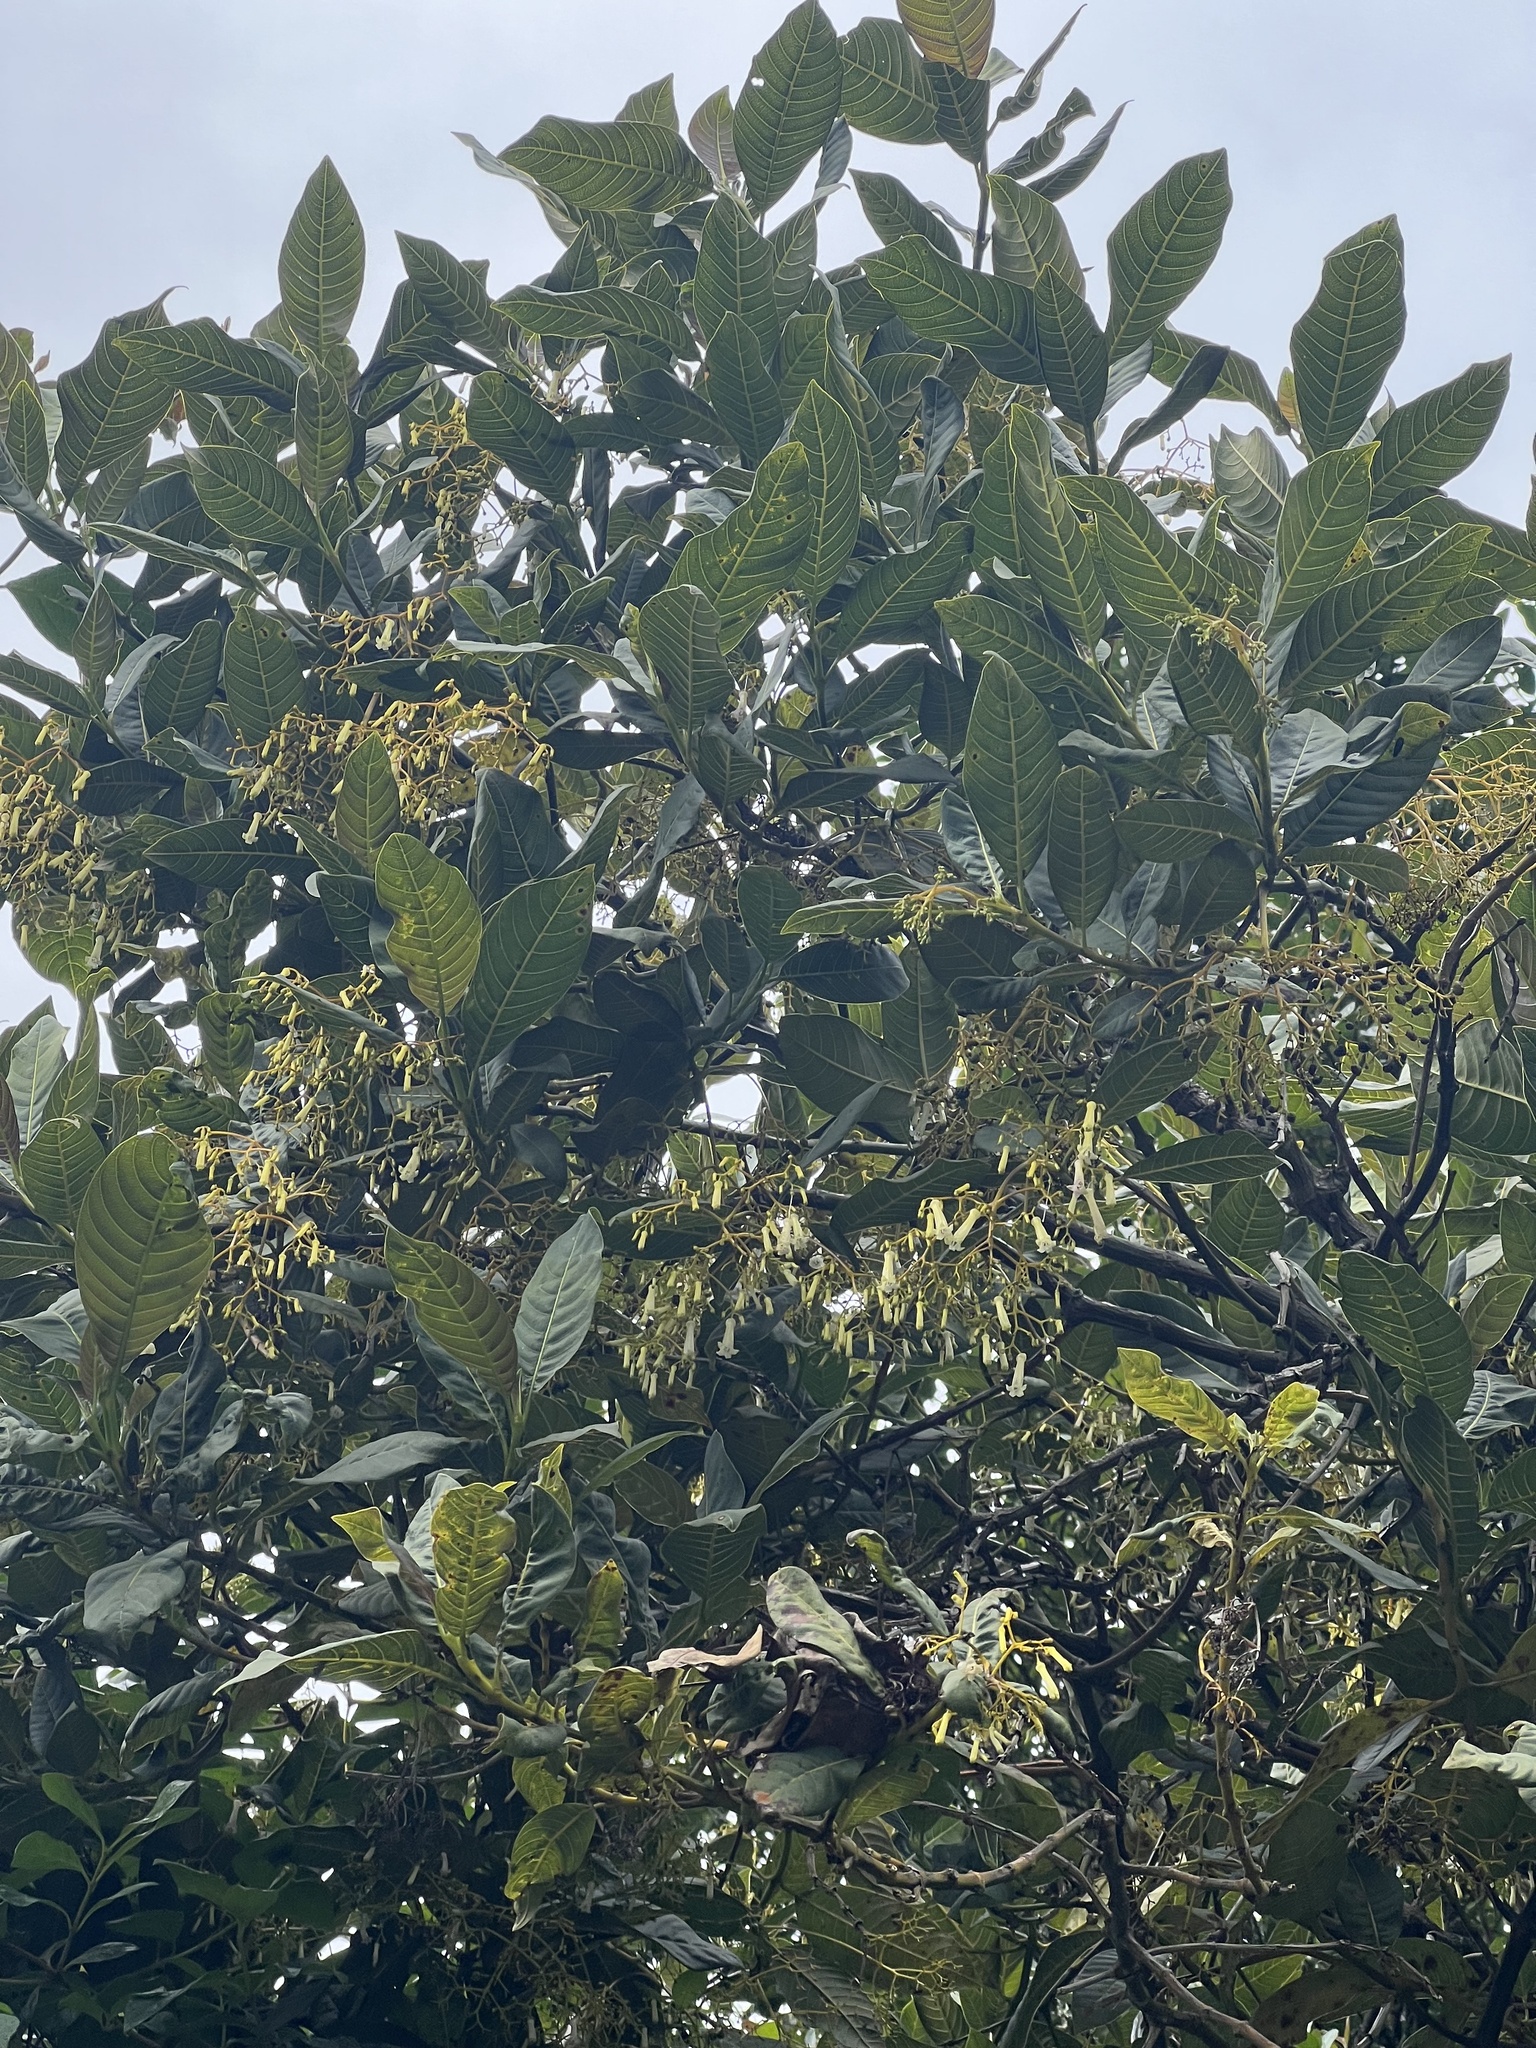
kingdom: Plantae
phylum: Tracheophyta
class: Magnoliopsida
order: Gentianales
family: Rubiaceae
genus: Palicourea
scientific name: Palicourea lineariflora
